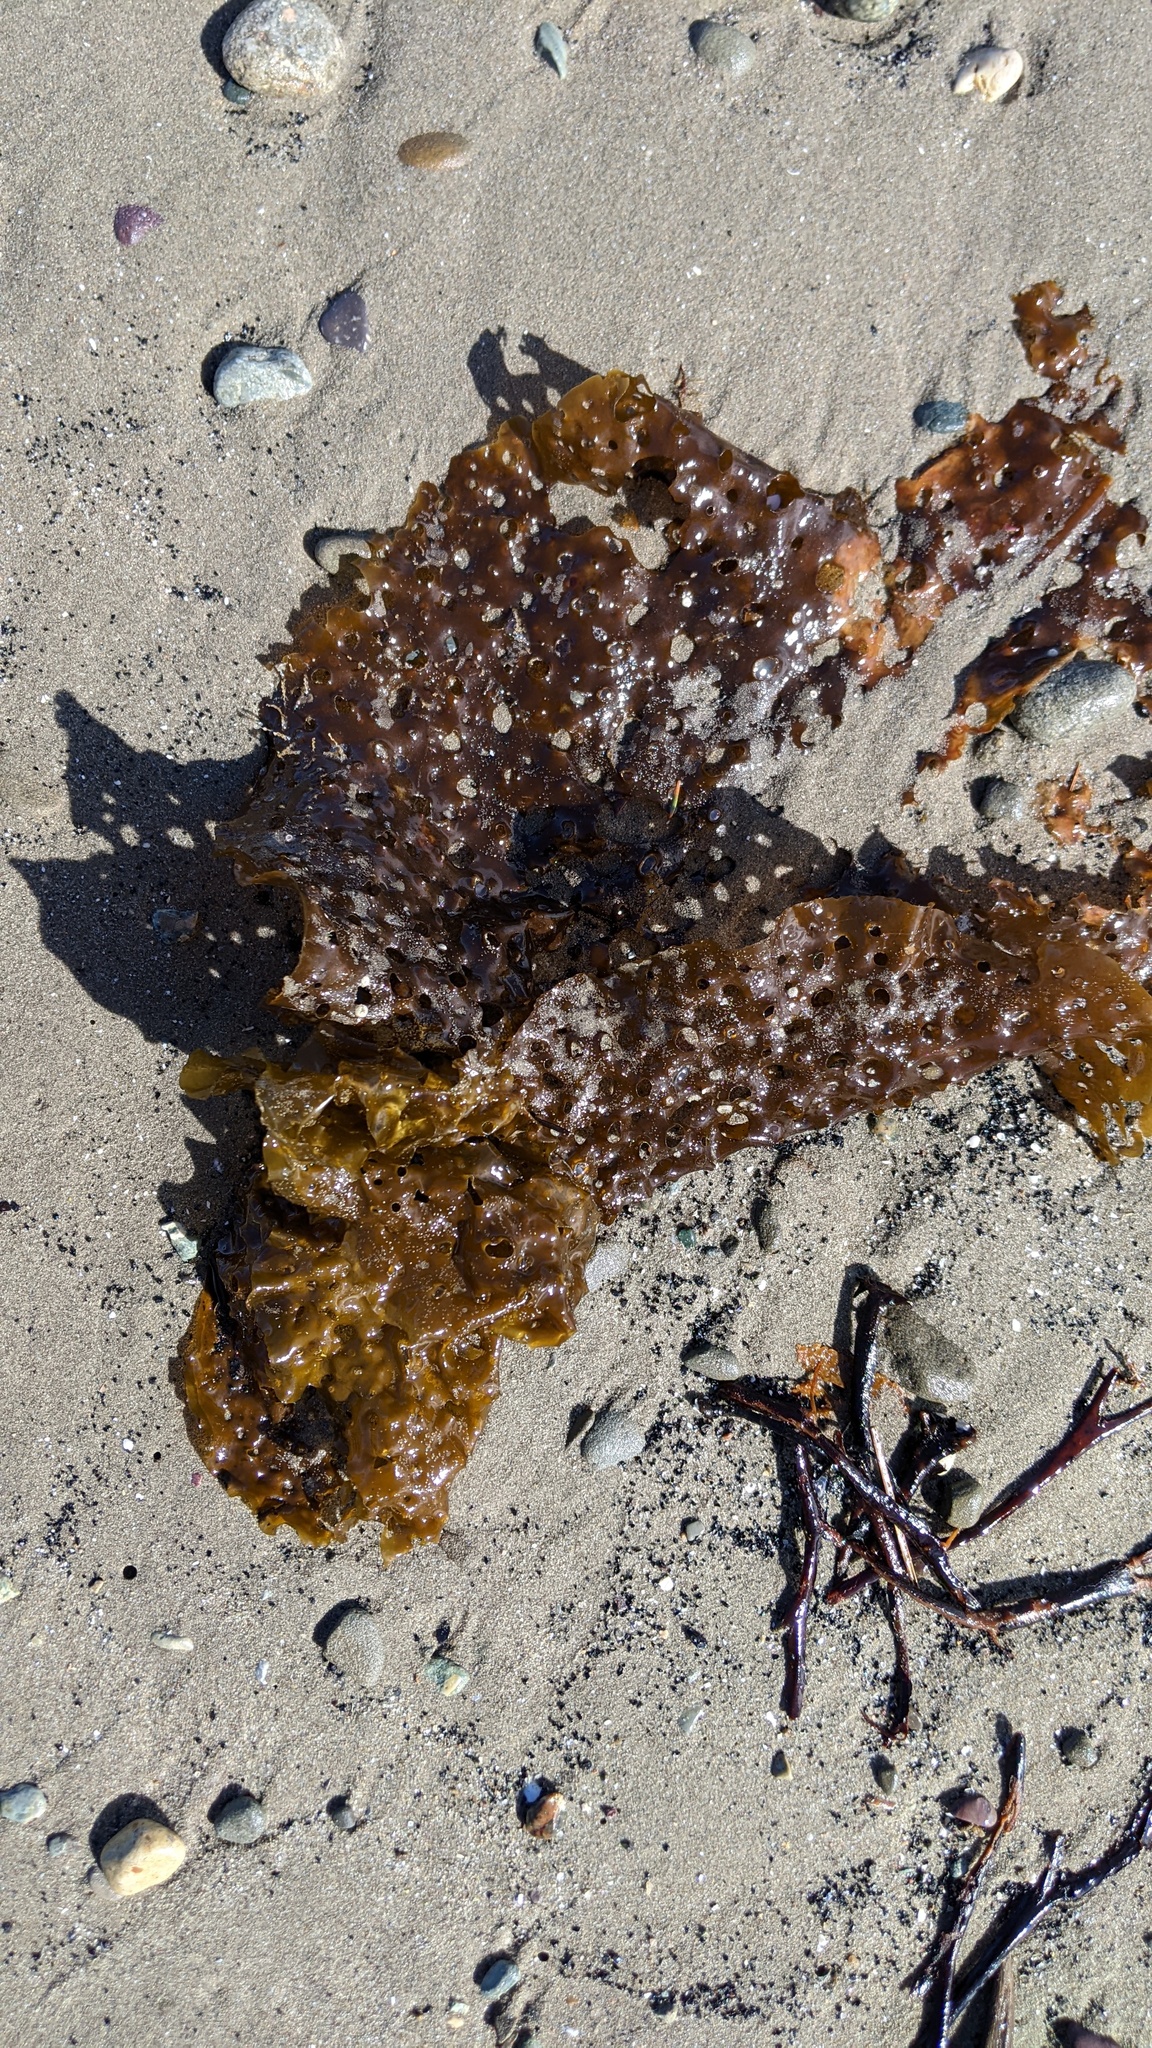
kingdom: Chromista
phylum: Ochrophyta
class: Phaeophyceae
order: Laminariales
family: Costariaceae
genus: Agarum
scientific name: Agarum clathratum
